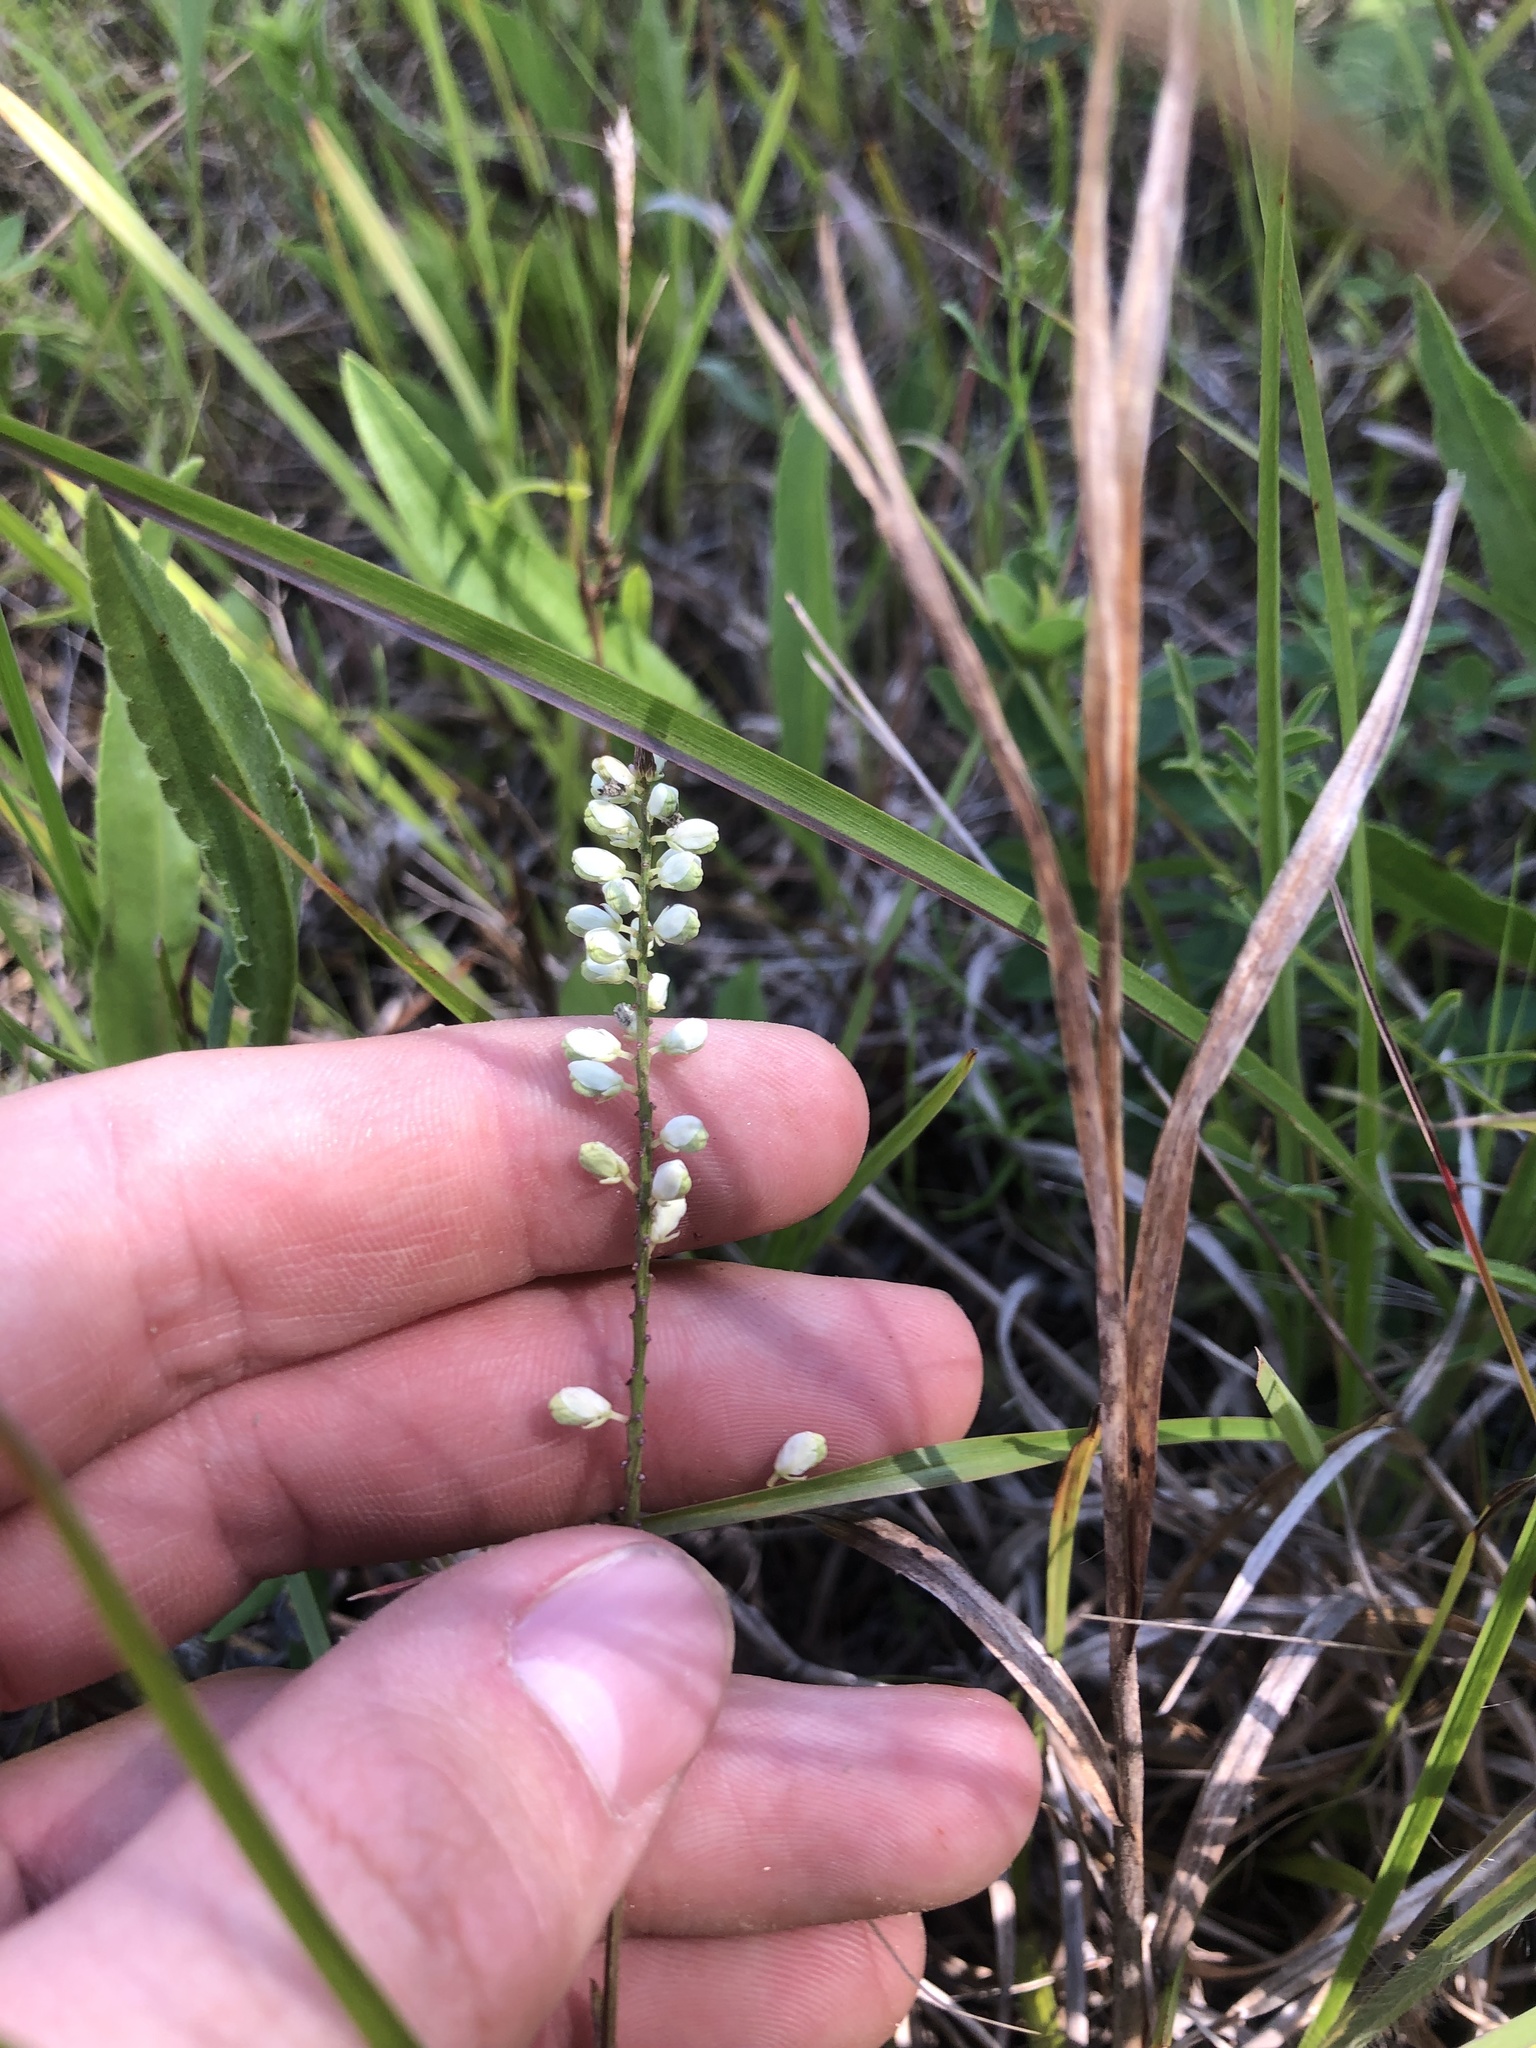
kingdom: Plantae
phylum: Tracheophyta
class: Magnoliopsida
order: Fabales
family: Polygalaceae
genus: Polygala
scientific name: Polygala boykinii
